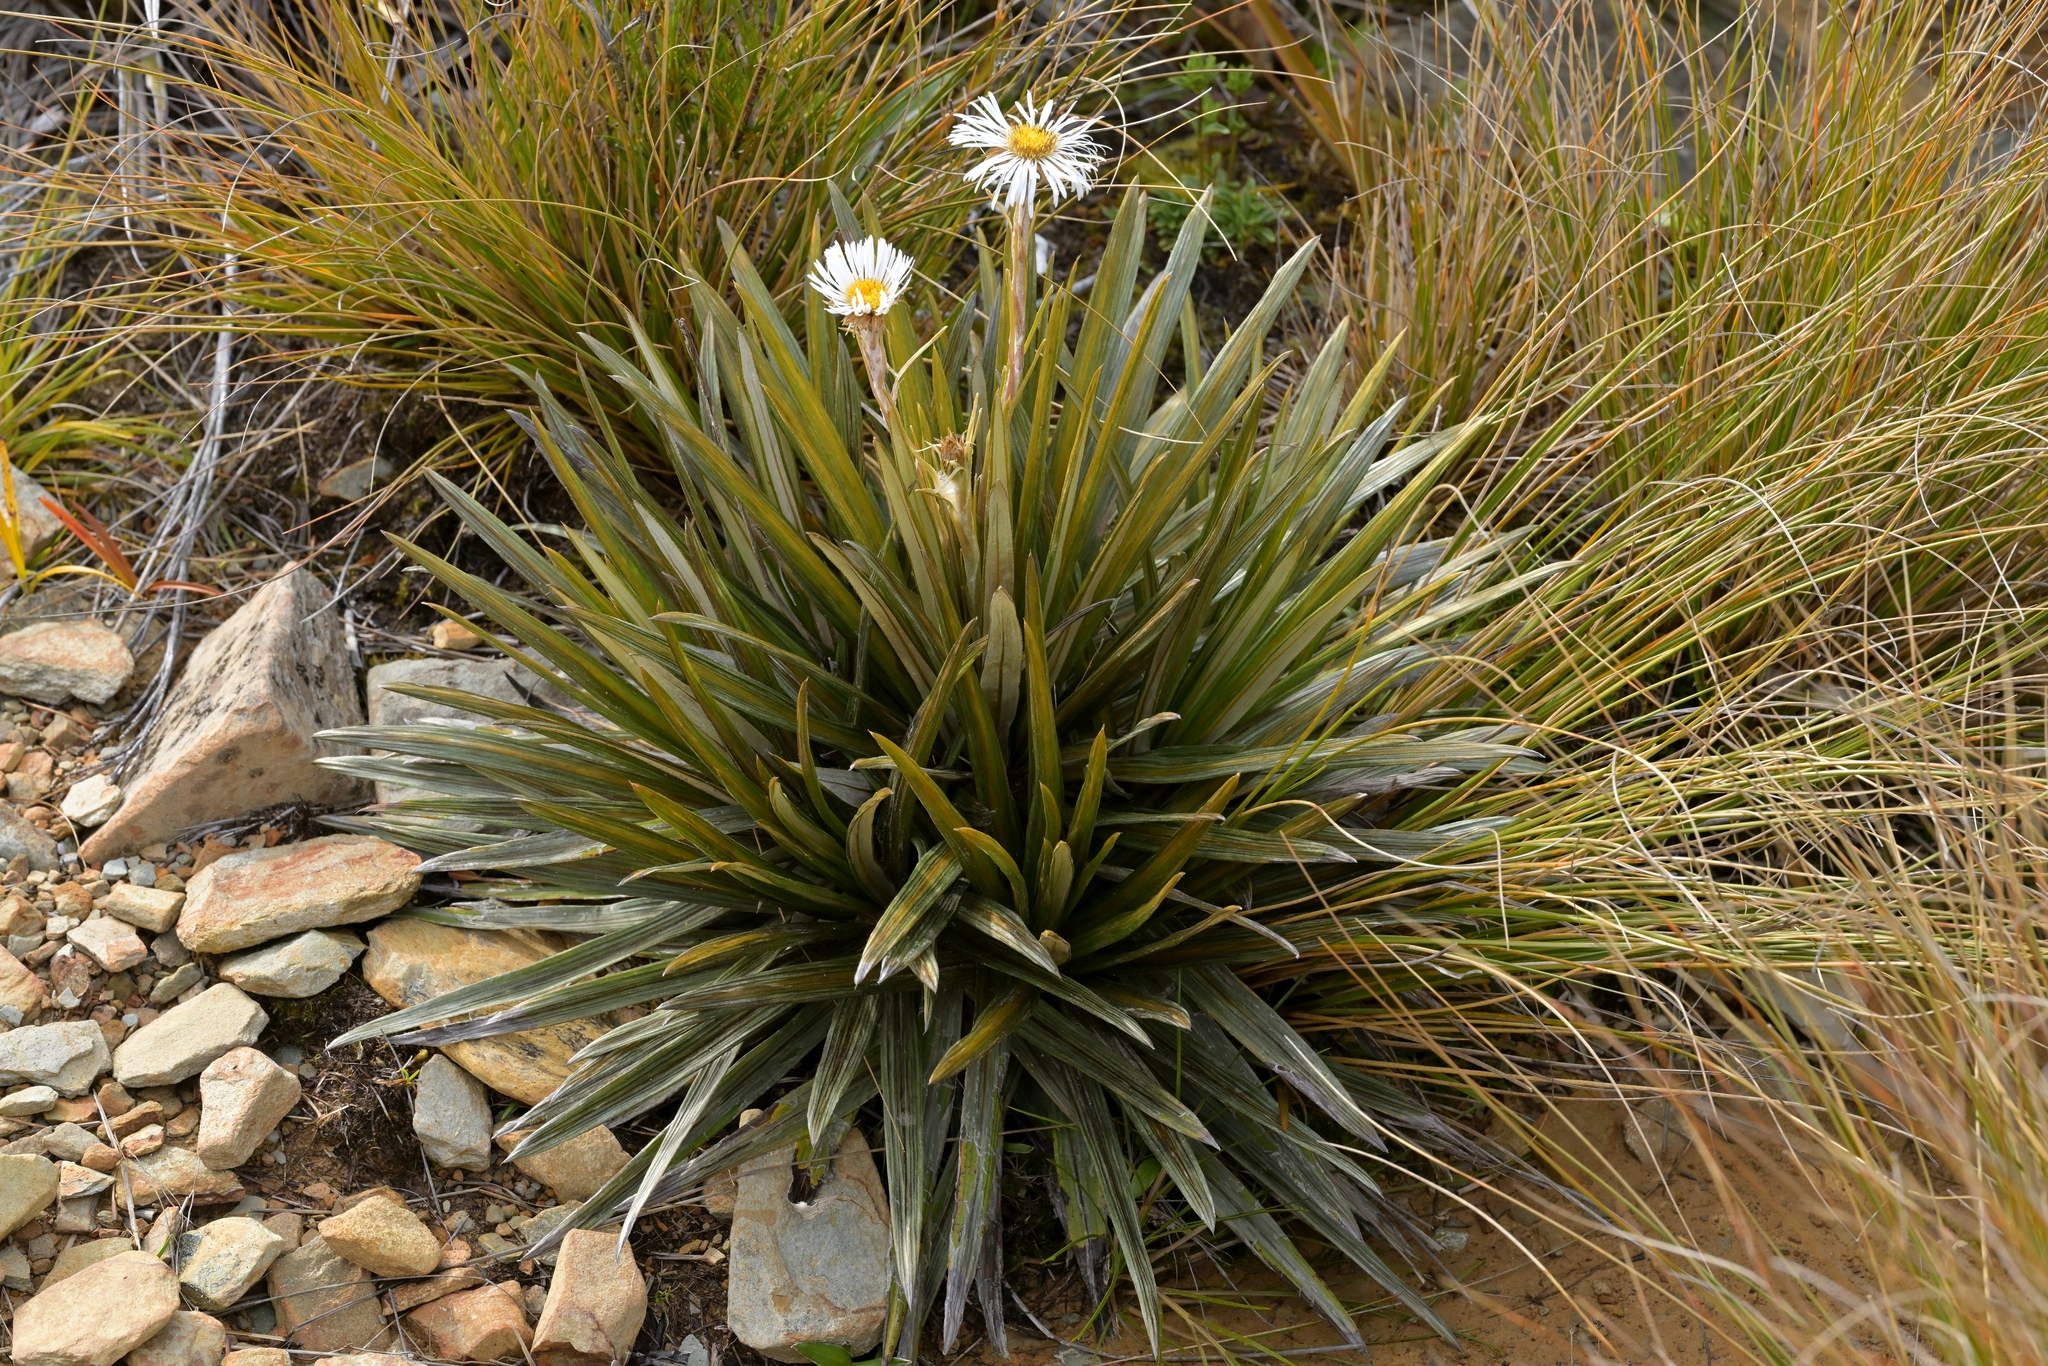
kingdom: Plantae
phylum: Tracheophyta
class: Magnoliopsida
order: Asterales
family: Asteraceae
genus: Celmisia
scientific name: Celmisia armstrongii
